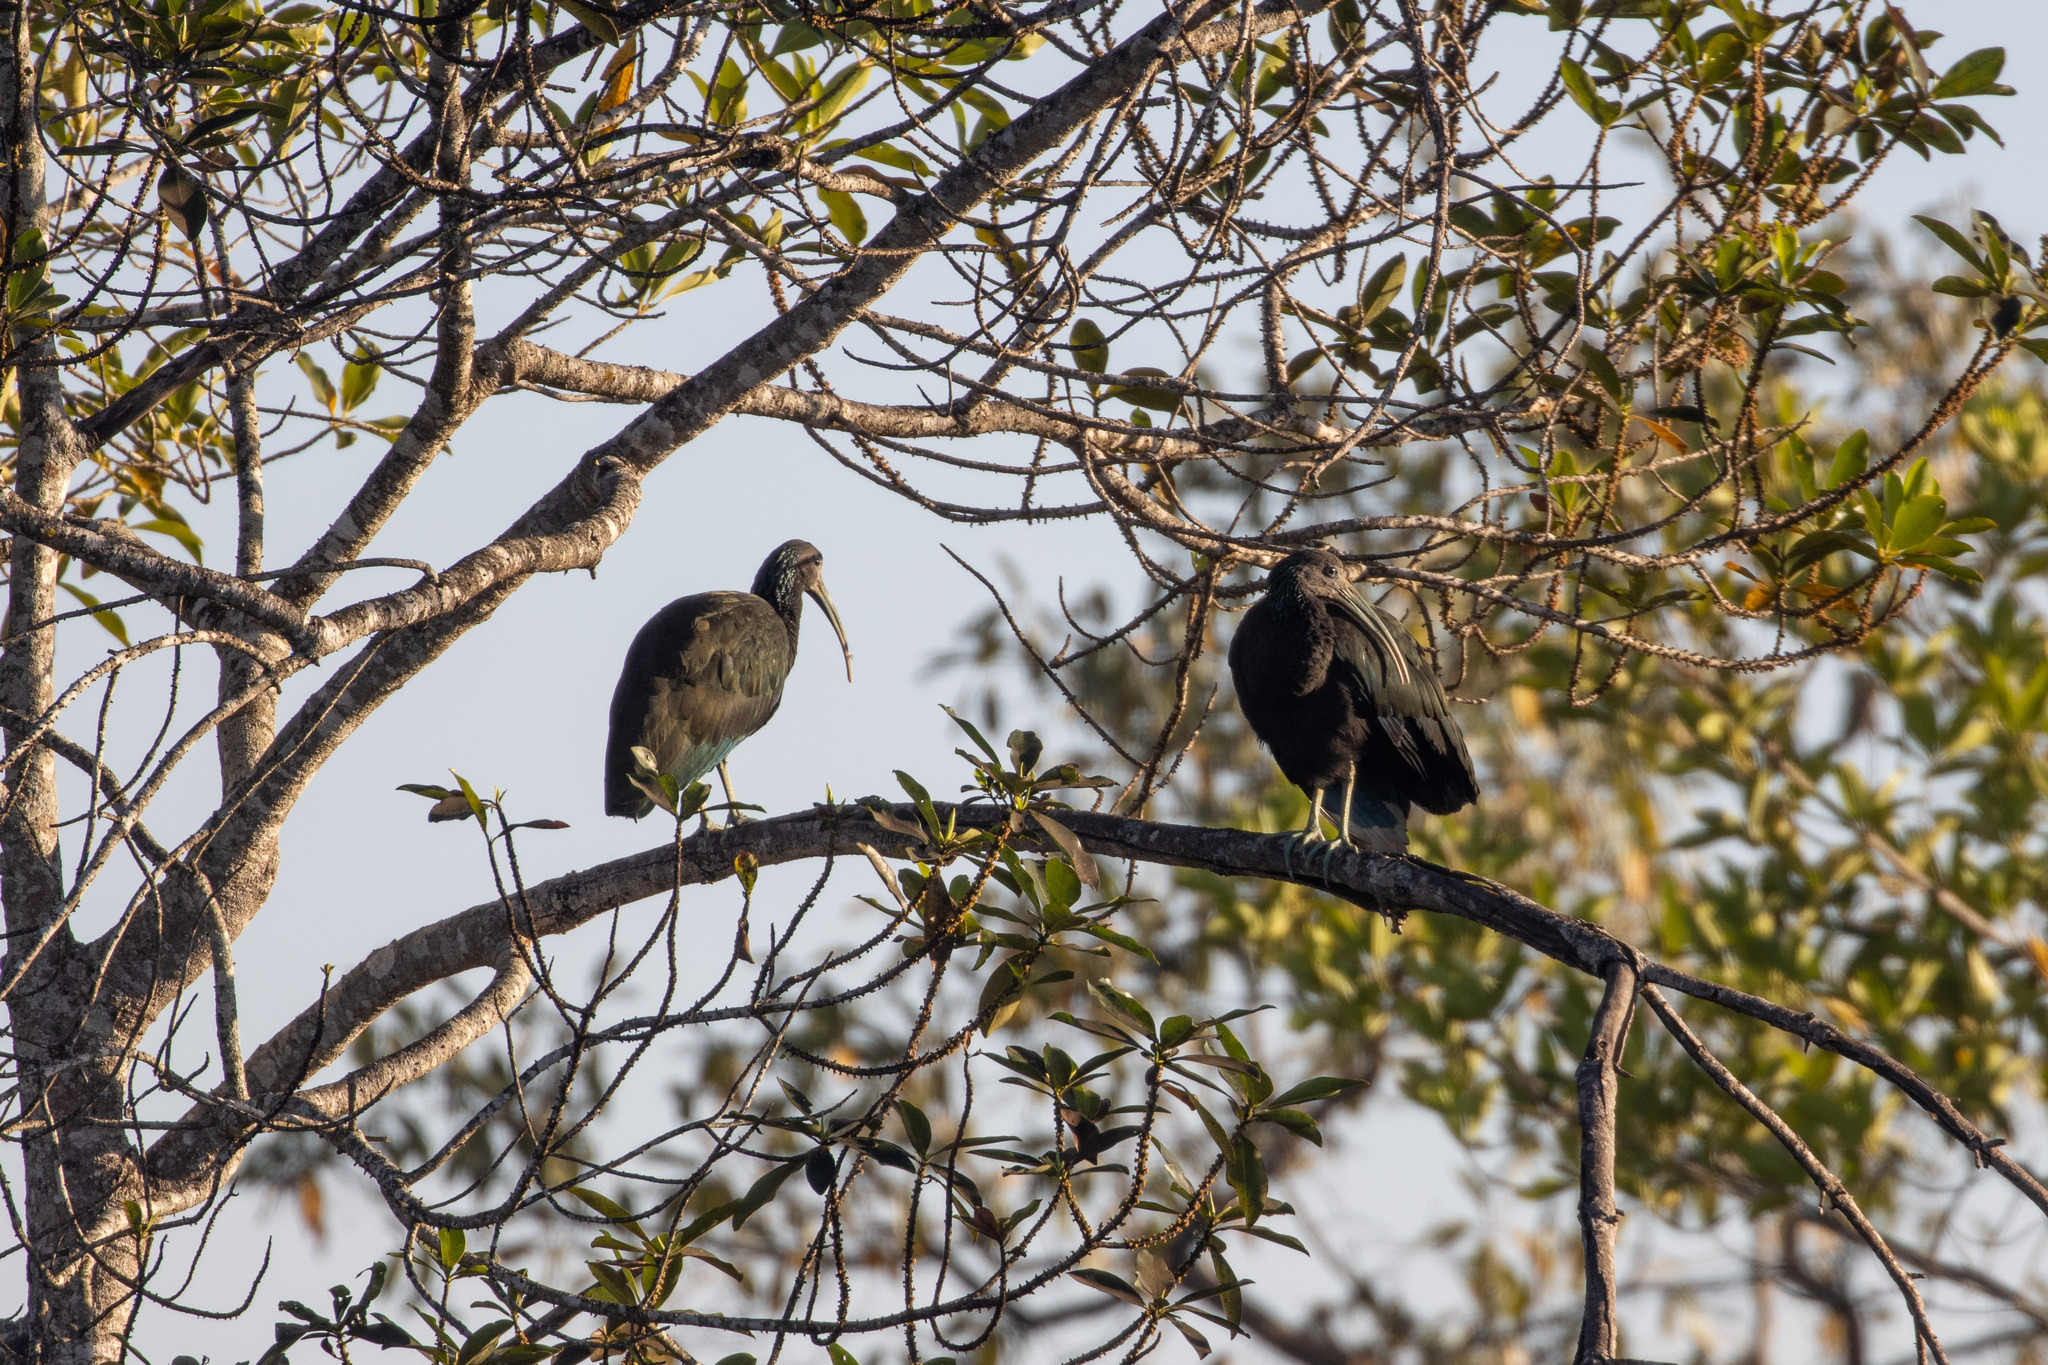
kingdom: Animalia
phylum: Chordata
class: Aves
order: Pelecaniformes
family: Threskiornithidae
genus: Mesembrinibis
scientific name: Mesembrinibis cayennensis
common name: Green ibis
